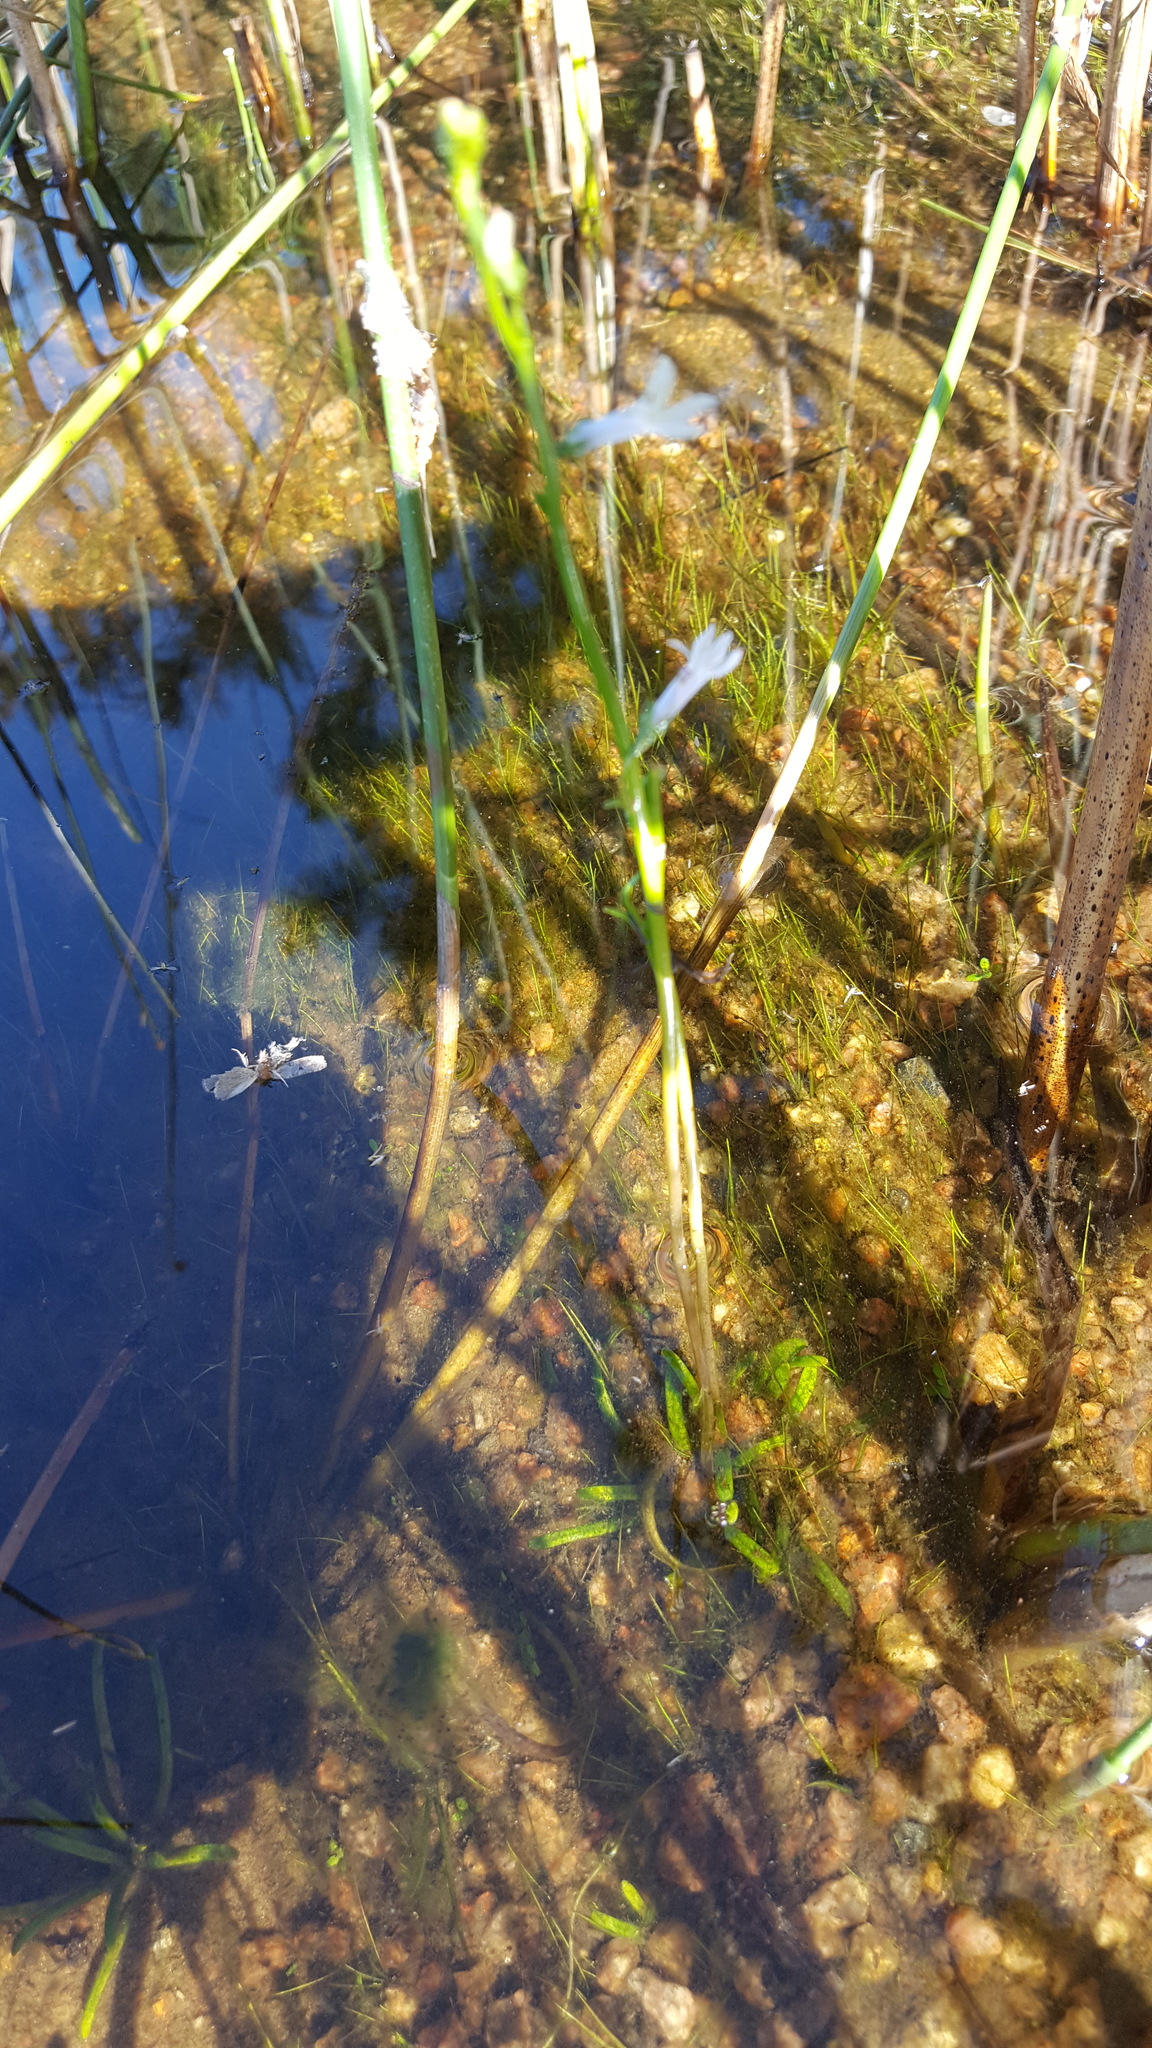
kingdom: Plantae
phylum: Tracheophyta
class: Magnoliopsida
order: Asterales
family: Campanulaceae
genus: Lobelia
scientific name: Lobelia dortmanna
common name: Water lobelia
